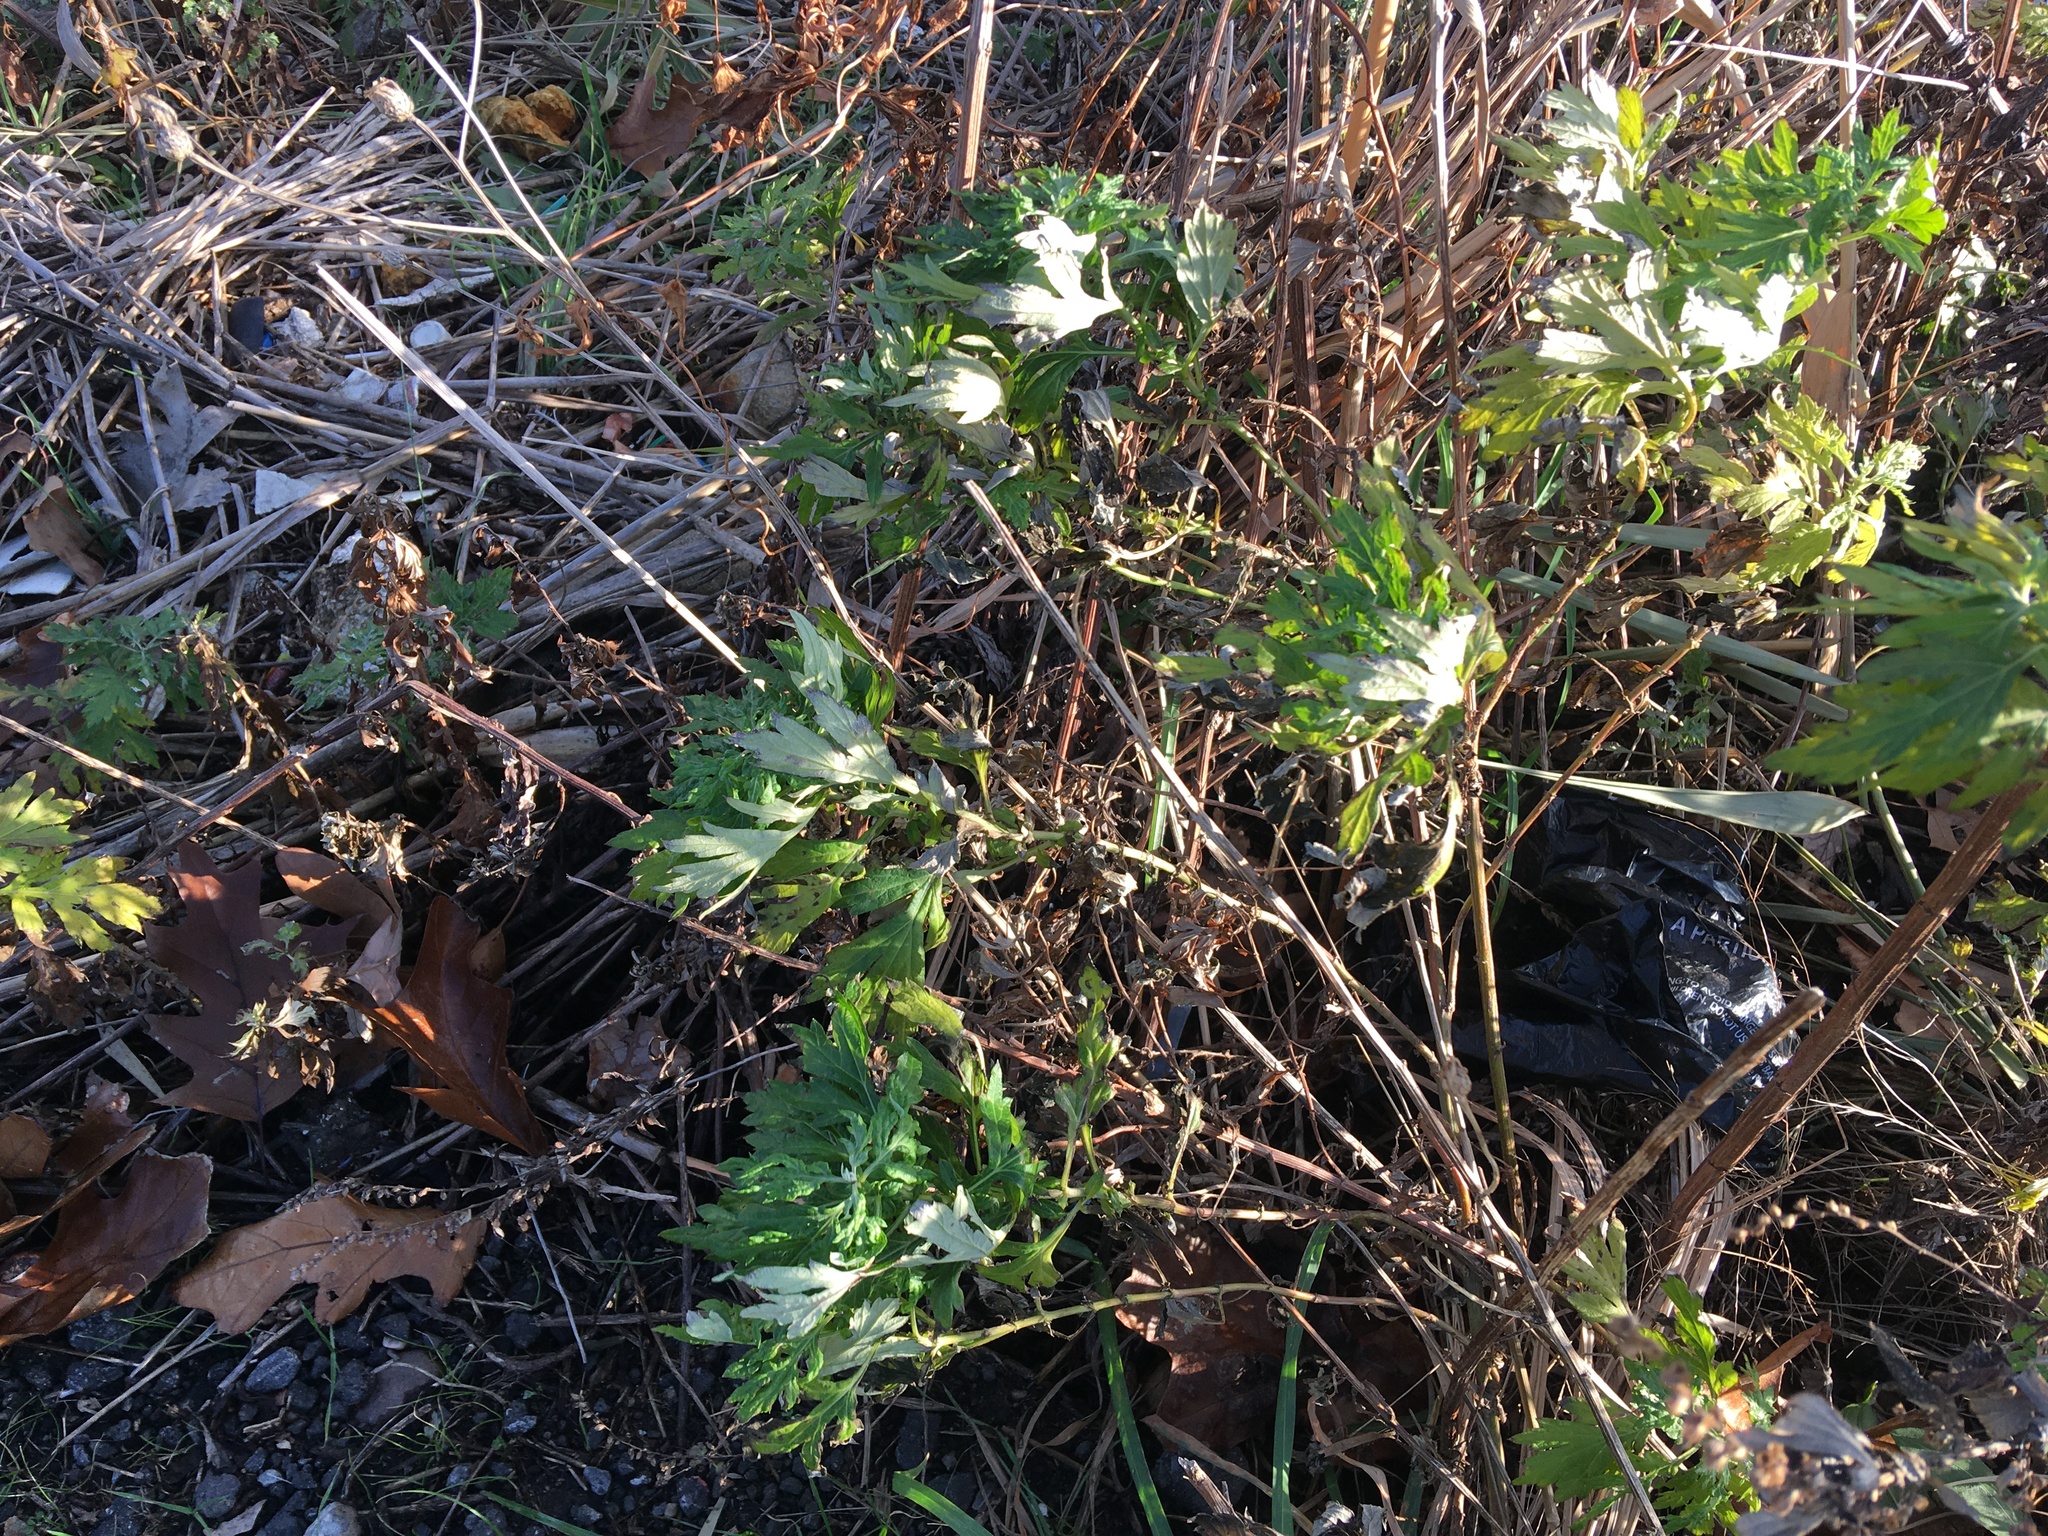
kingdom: Plantae
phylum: Tracheophyta
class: Magnoliopsida
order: Asterales
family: Asteraceae
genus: Artemisia
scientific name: Artemisia vulgaris
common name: Mugwort
